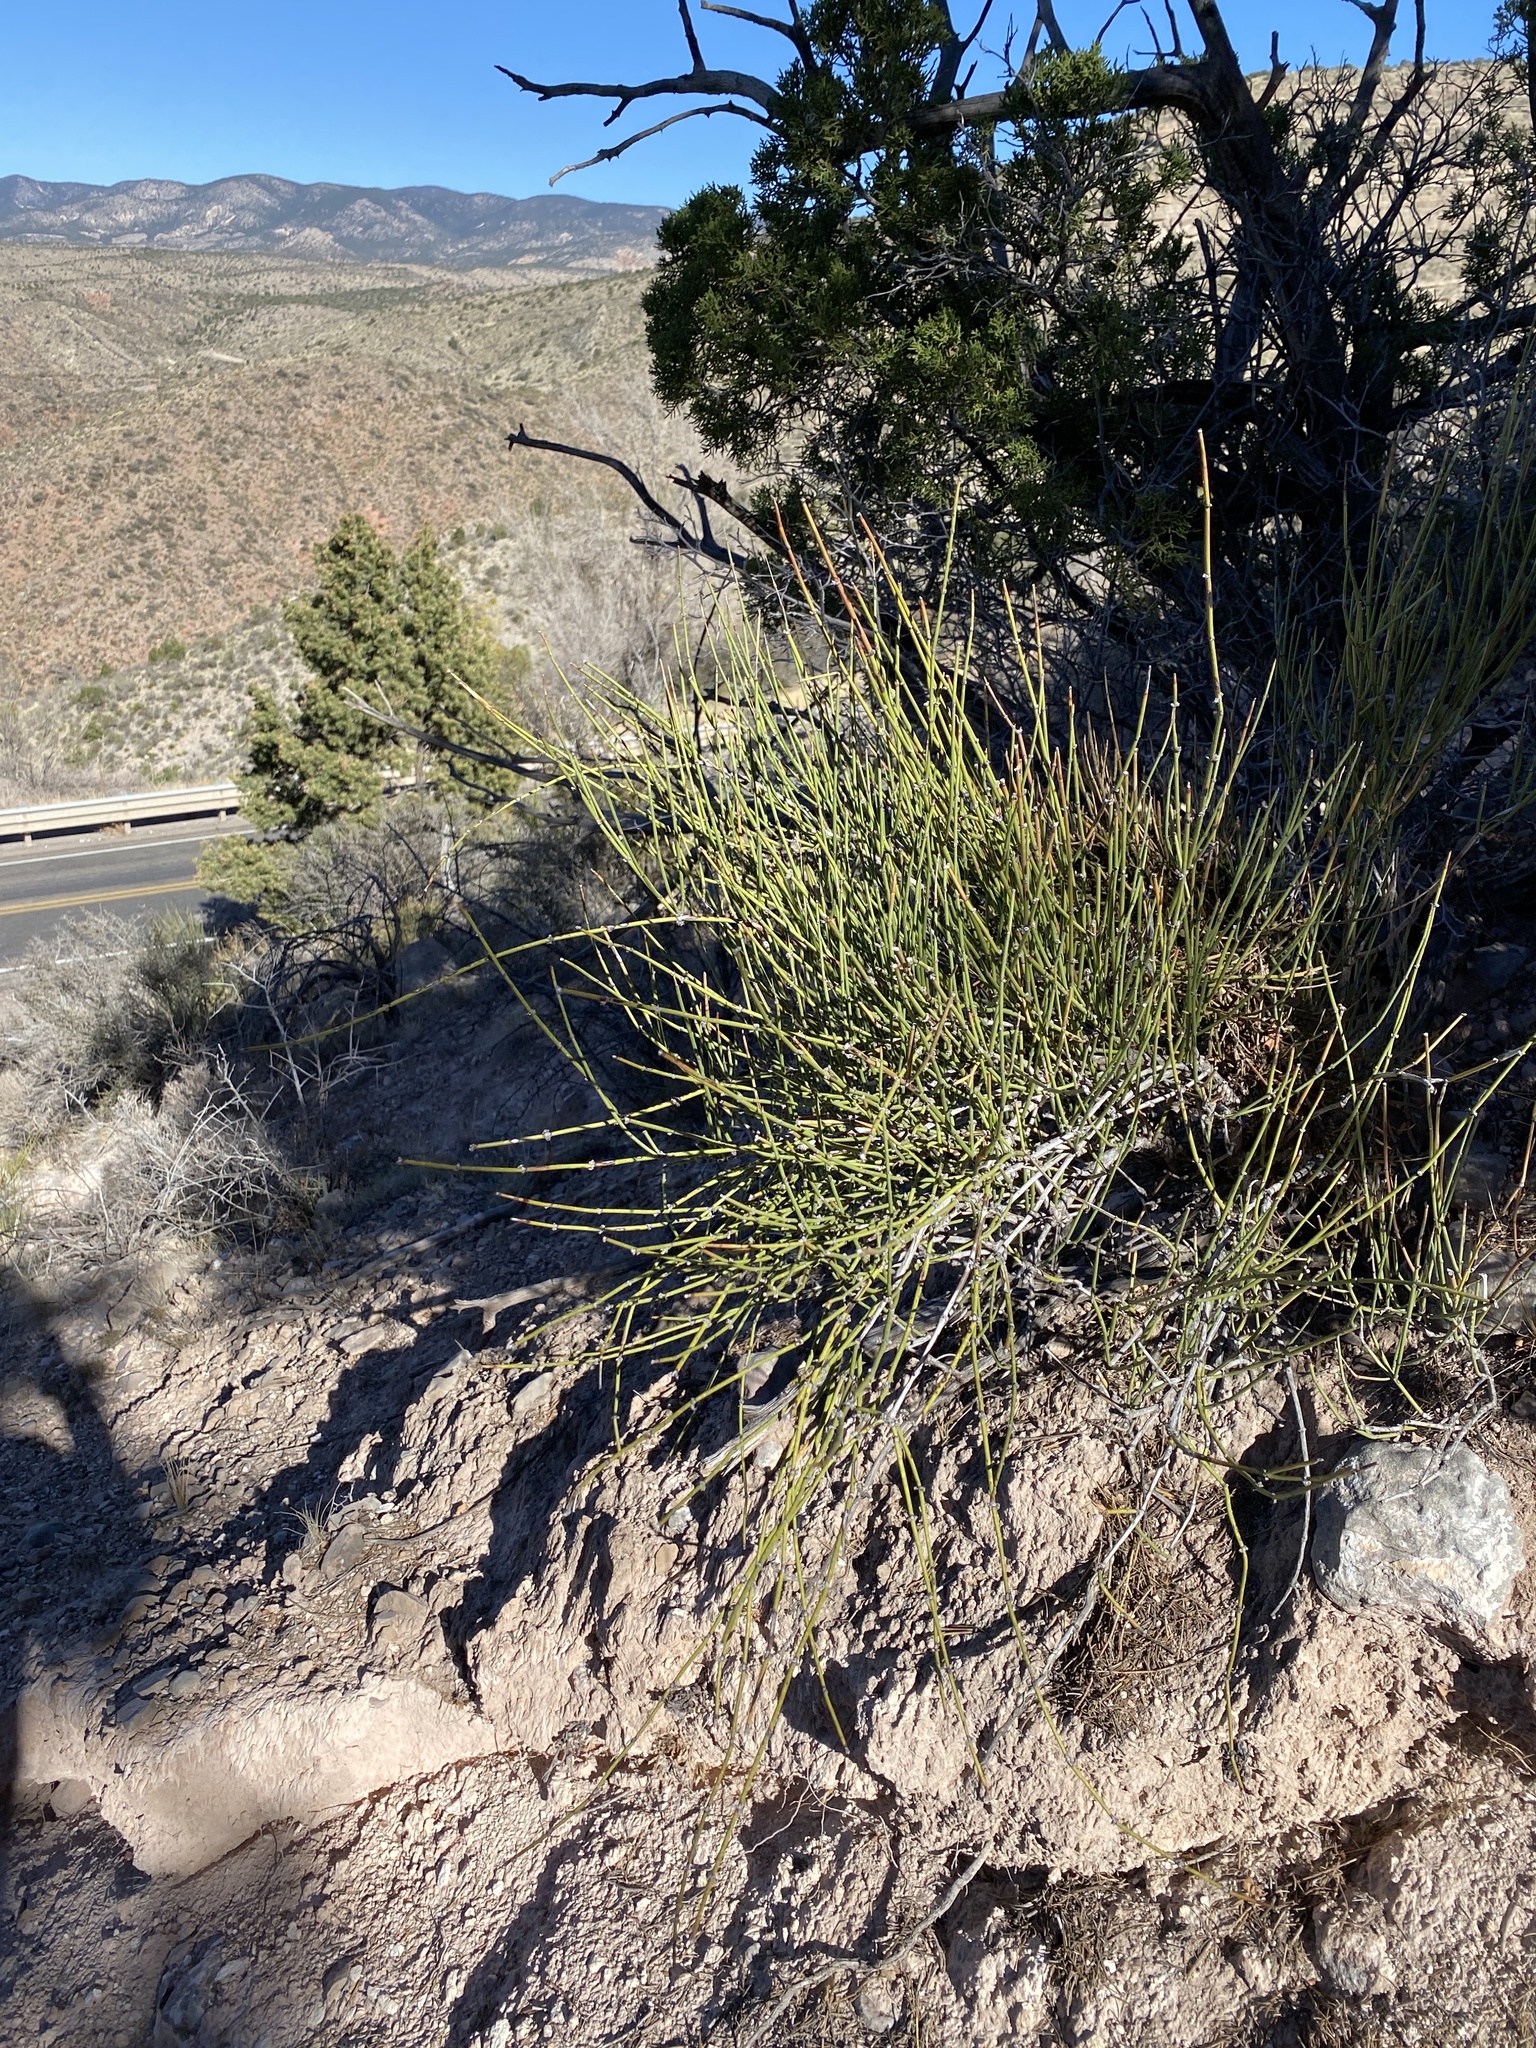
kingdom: Plantae
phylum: Tracheophyta
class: Gnetopsida
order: Ephedrales
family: Ephedraceae
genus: Ephedra
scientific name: Ephedra trifurca
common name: Mexican-tea
